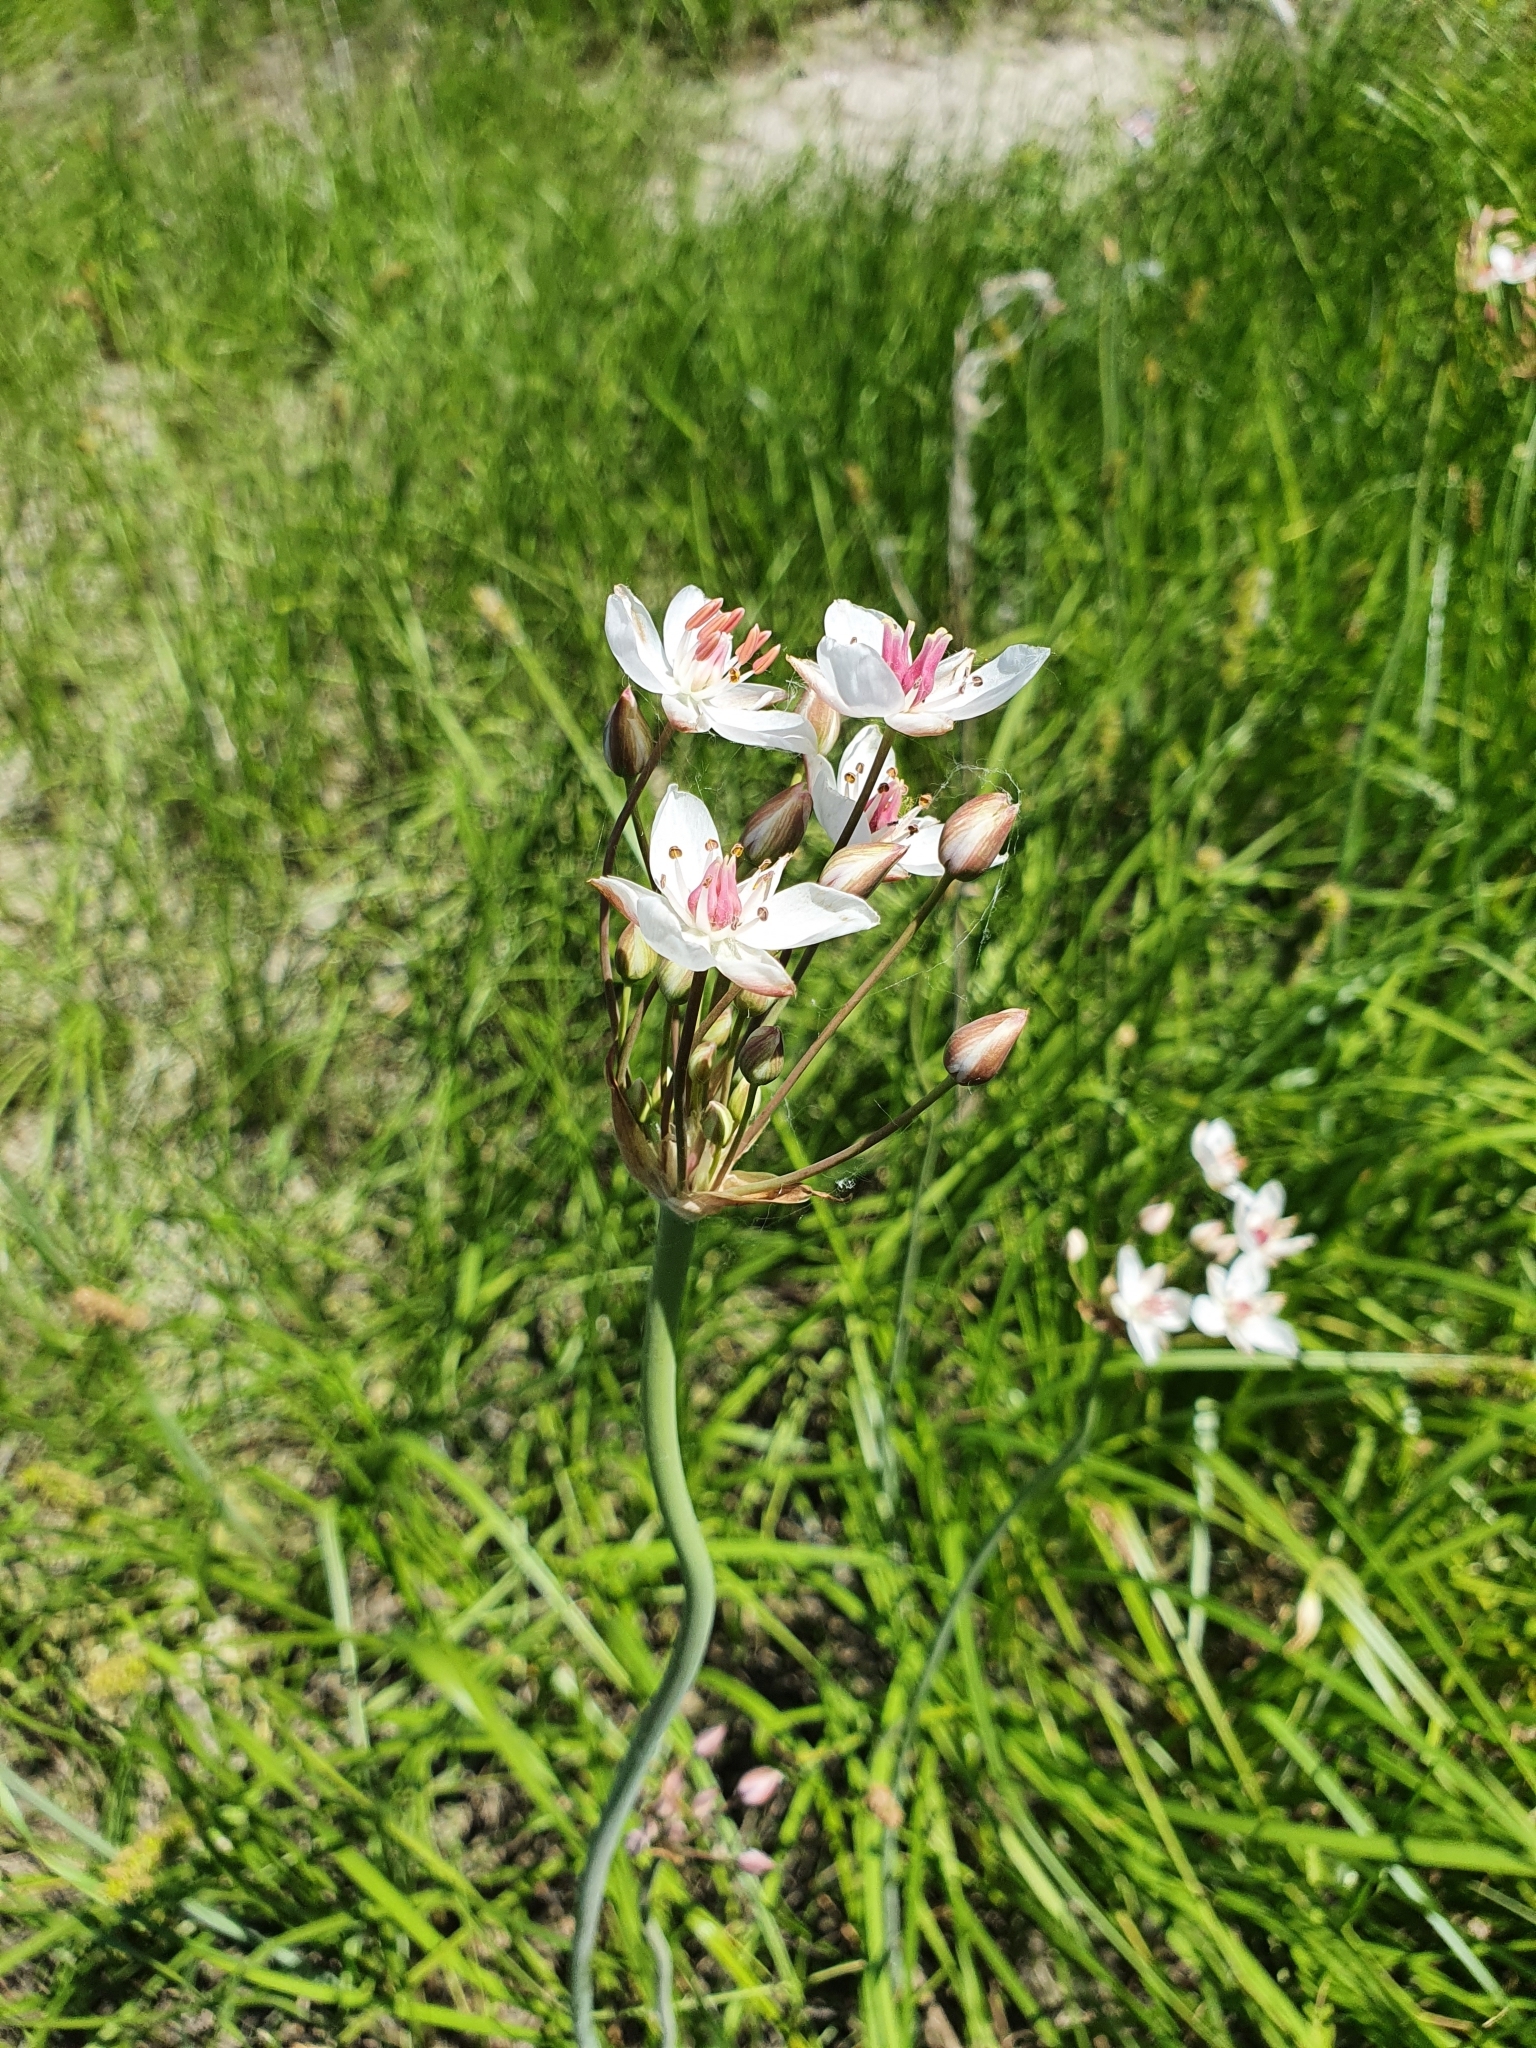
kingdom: Plantae
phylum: Tracheophyta
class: Liliopsida
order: Alismatales
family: Butomaceae
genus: Butomus
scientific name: Butomus umbellatus
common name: Flowering-rush
